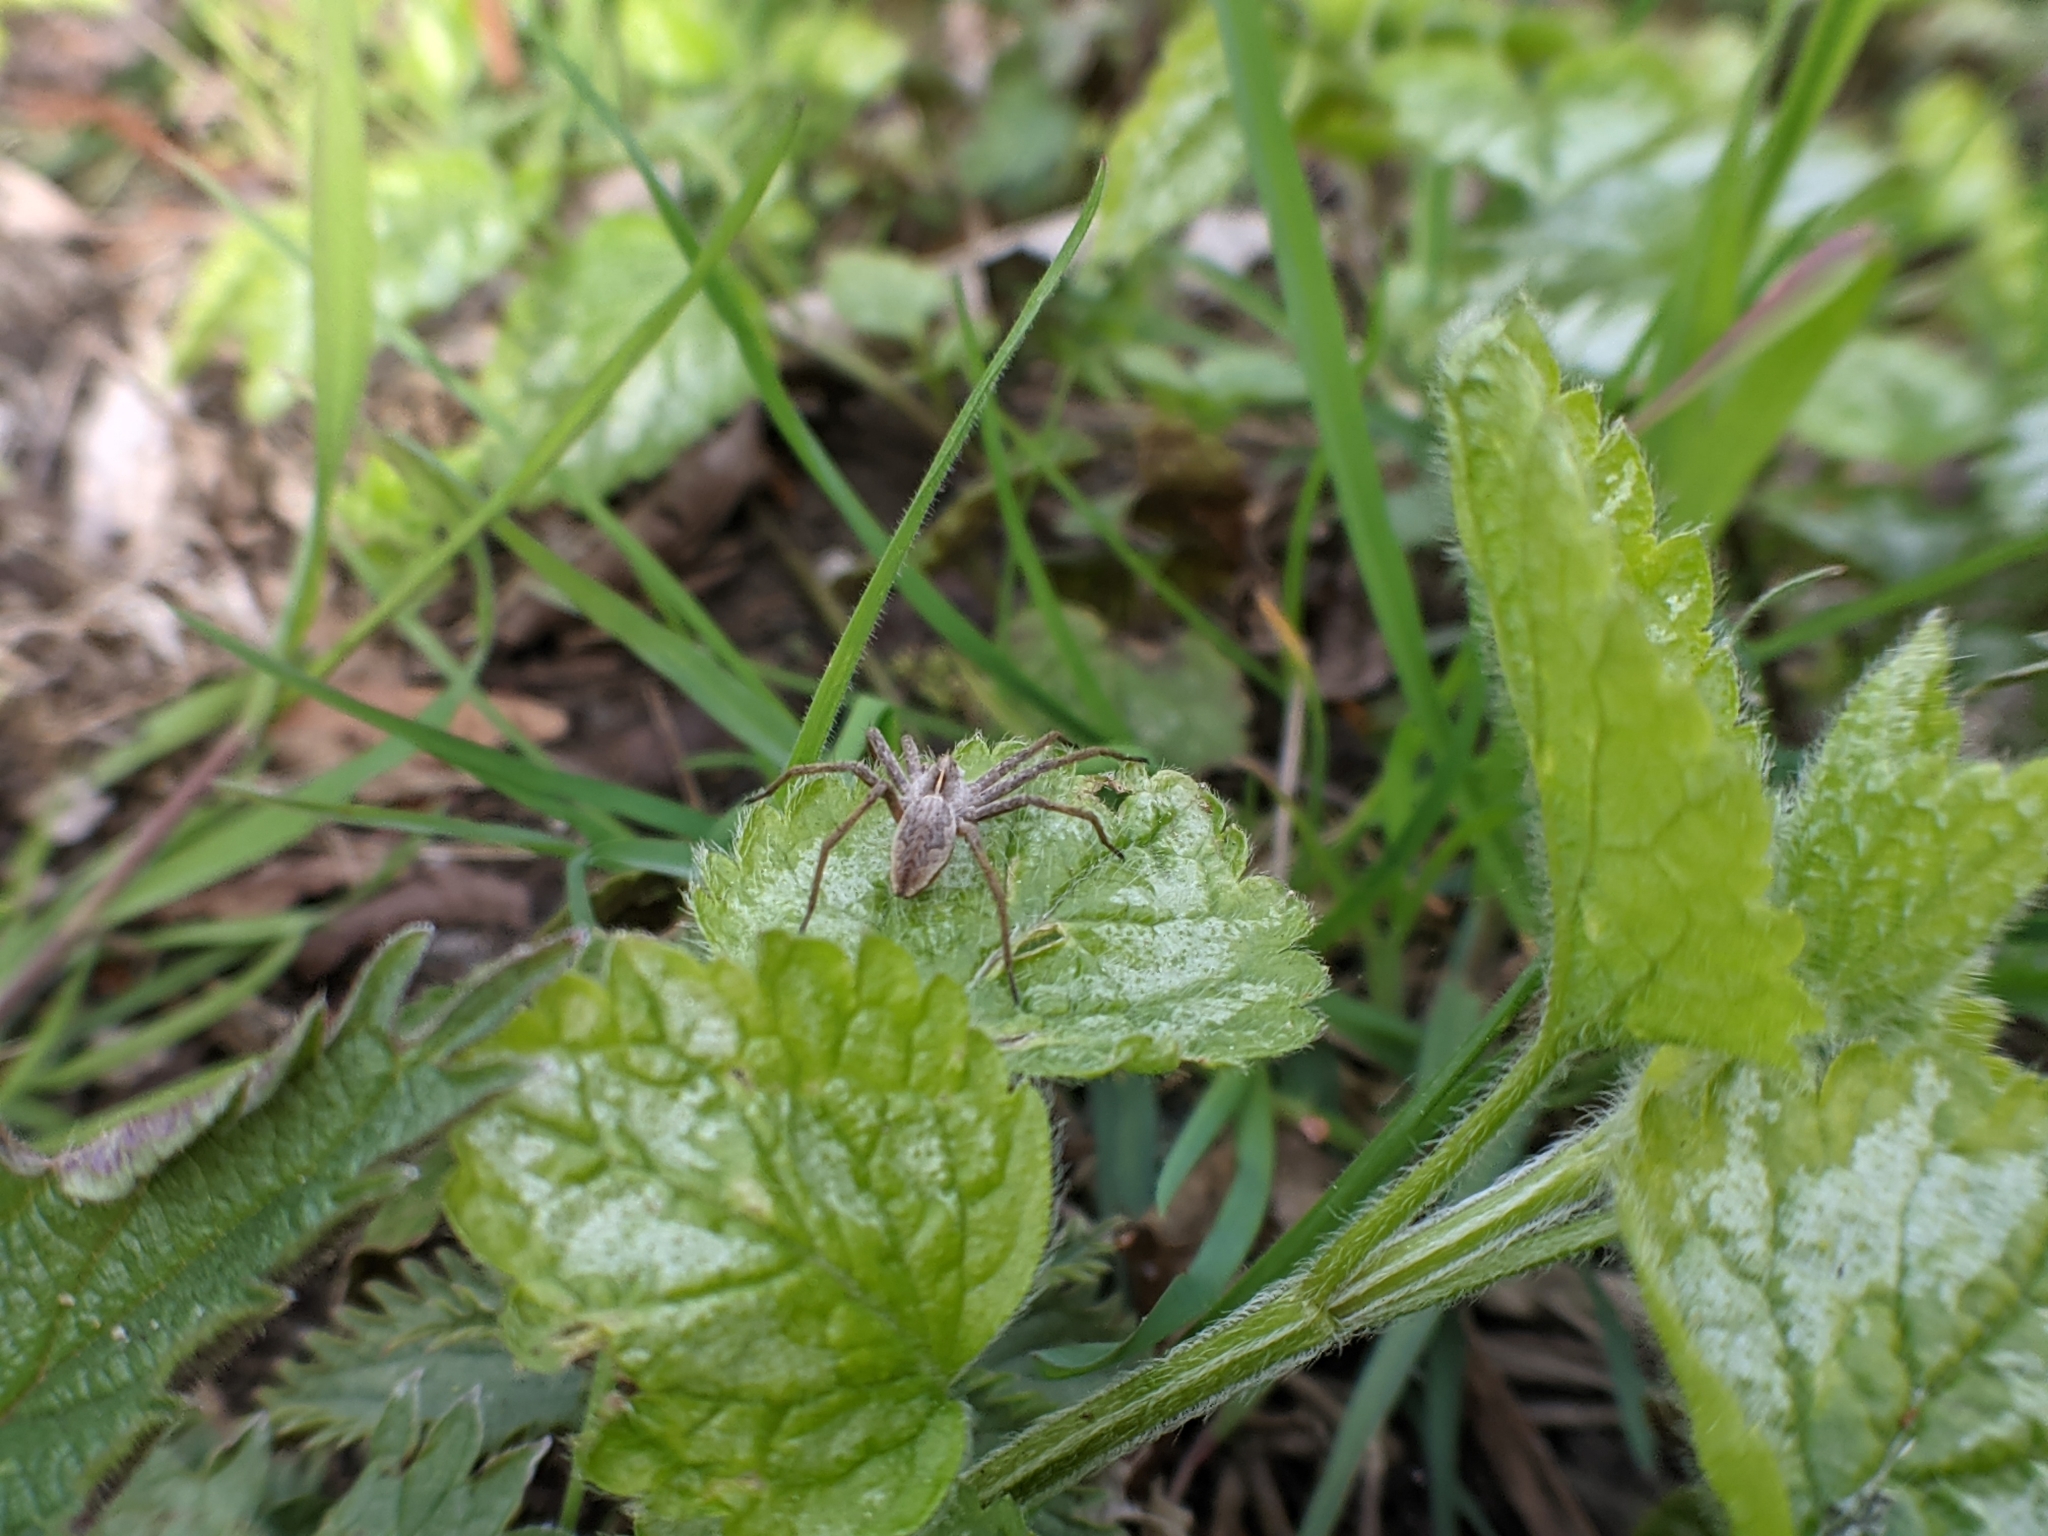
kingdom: Animalia
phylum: Arthropoda
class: Arachnida
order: Araneae
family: Pisauridae
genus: Pisaura
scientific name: Pisaura mirabilis
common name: Tent spider
